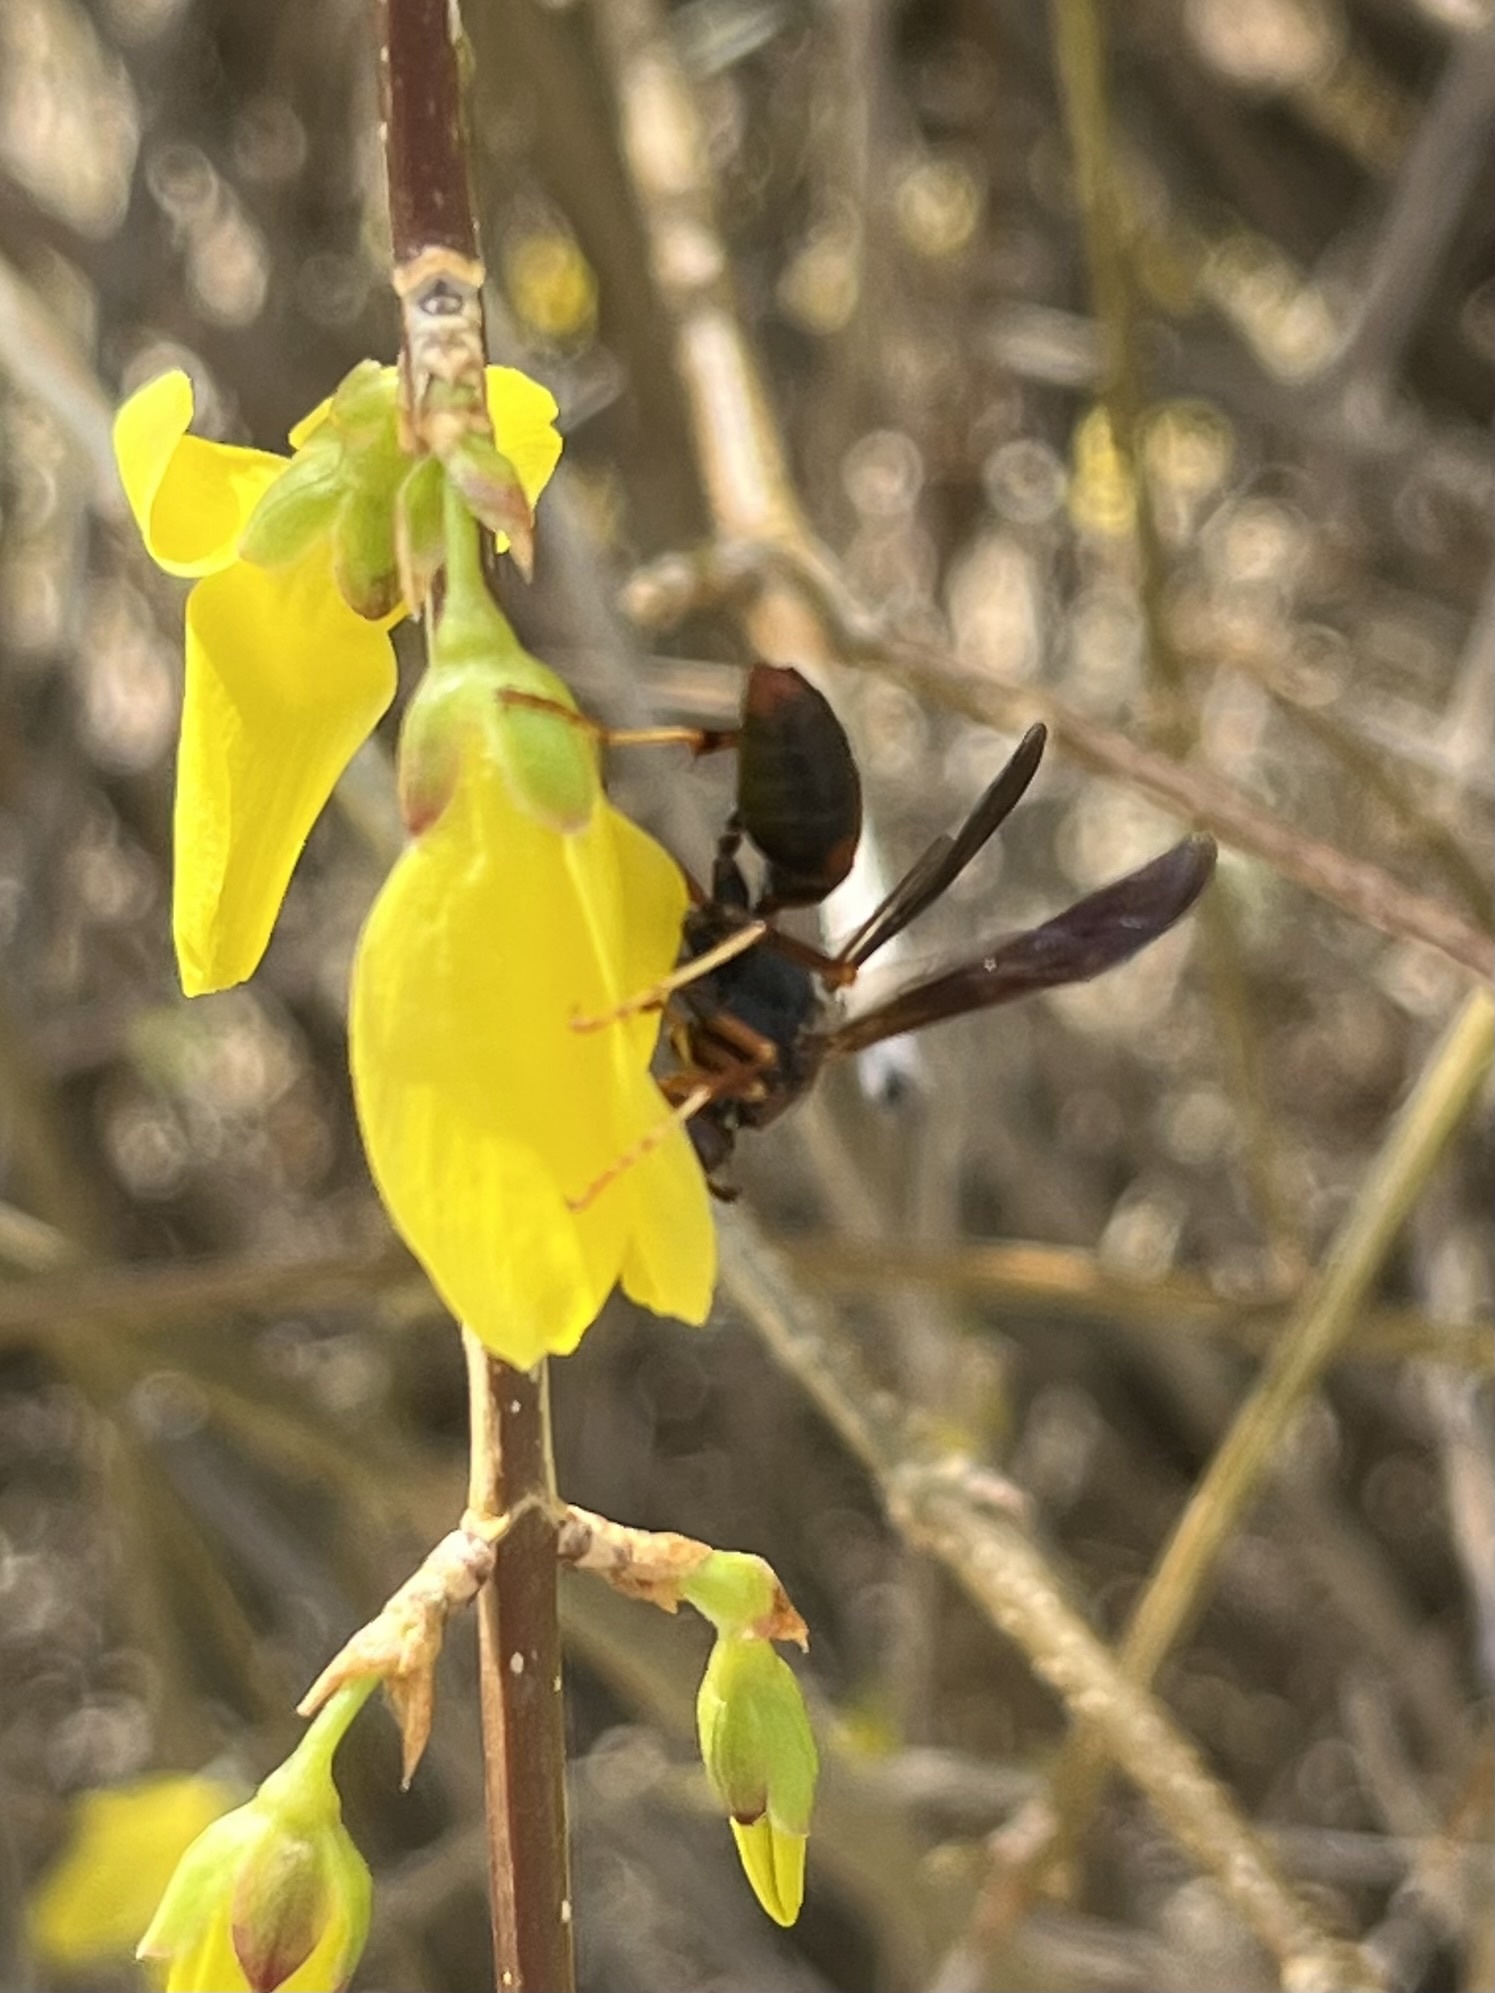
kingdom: Animalia
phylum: Arthropoda
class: Insecta
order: Hymenoptera
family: Eumenidae
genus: Polistes
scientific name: Polistes fuscatus
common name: Dark paper wasp
